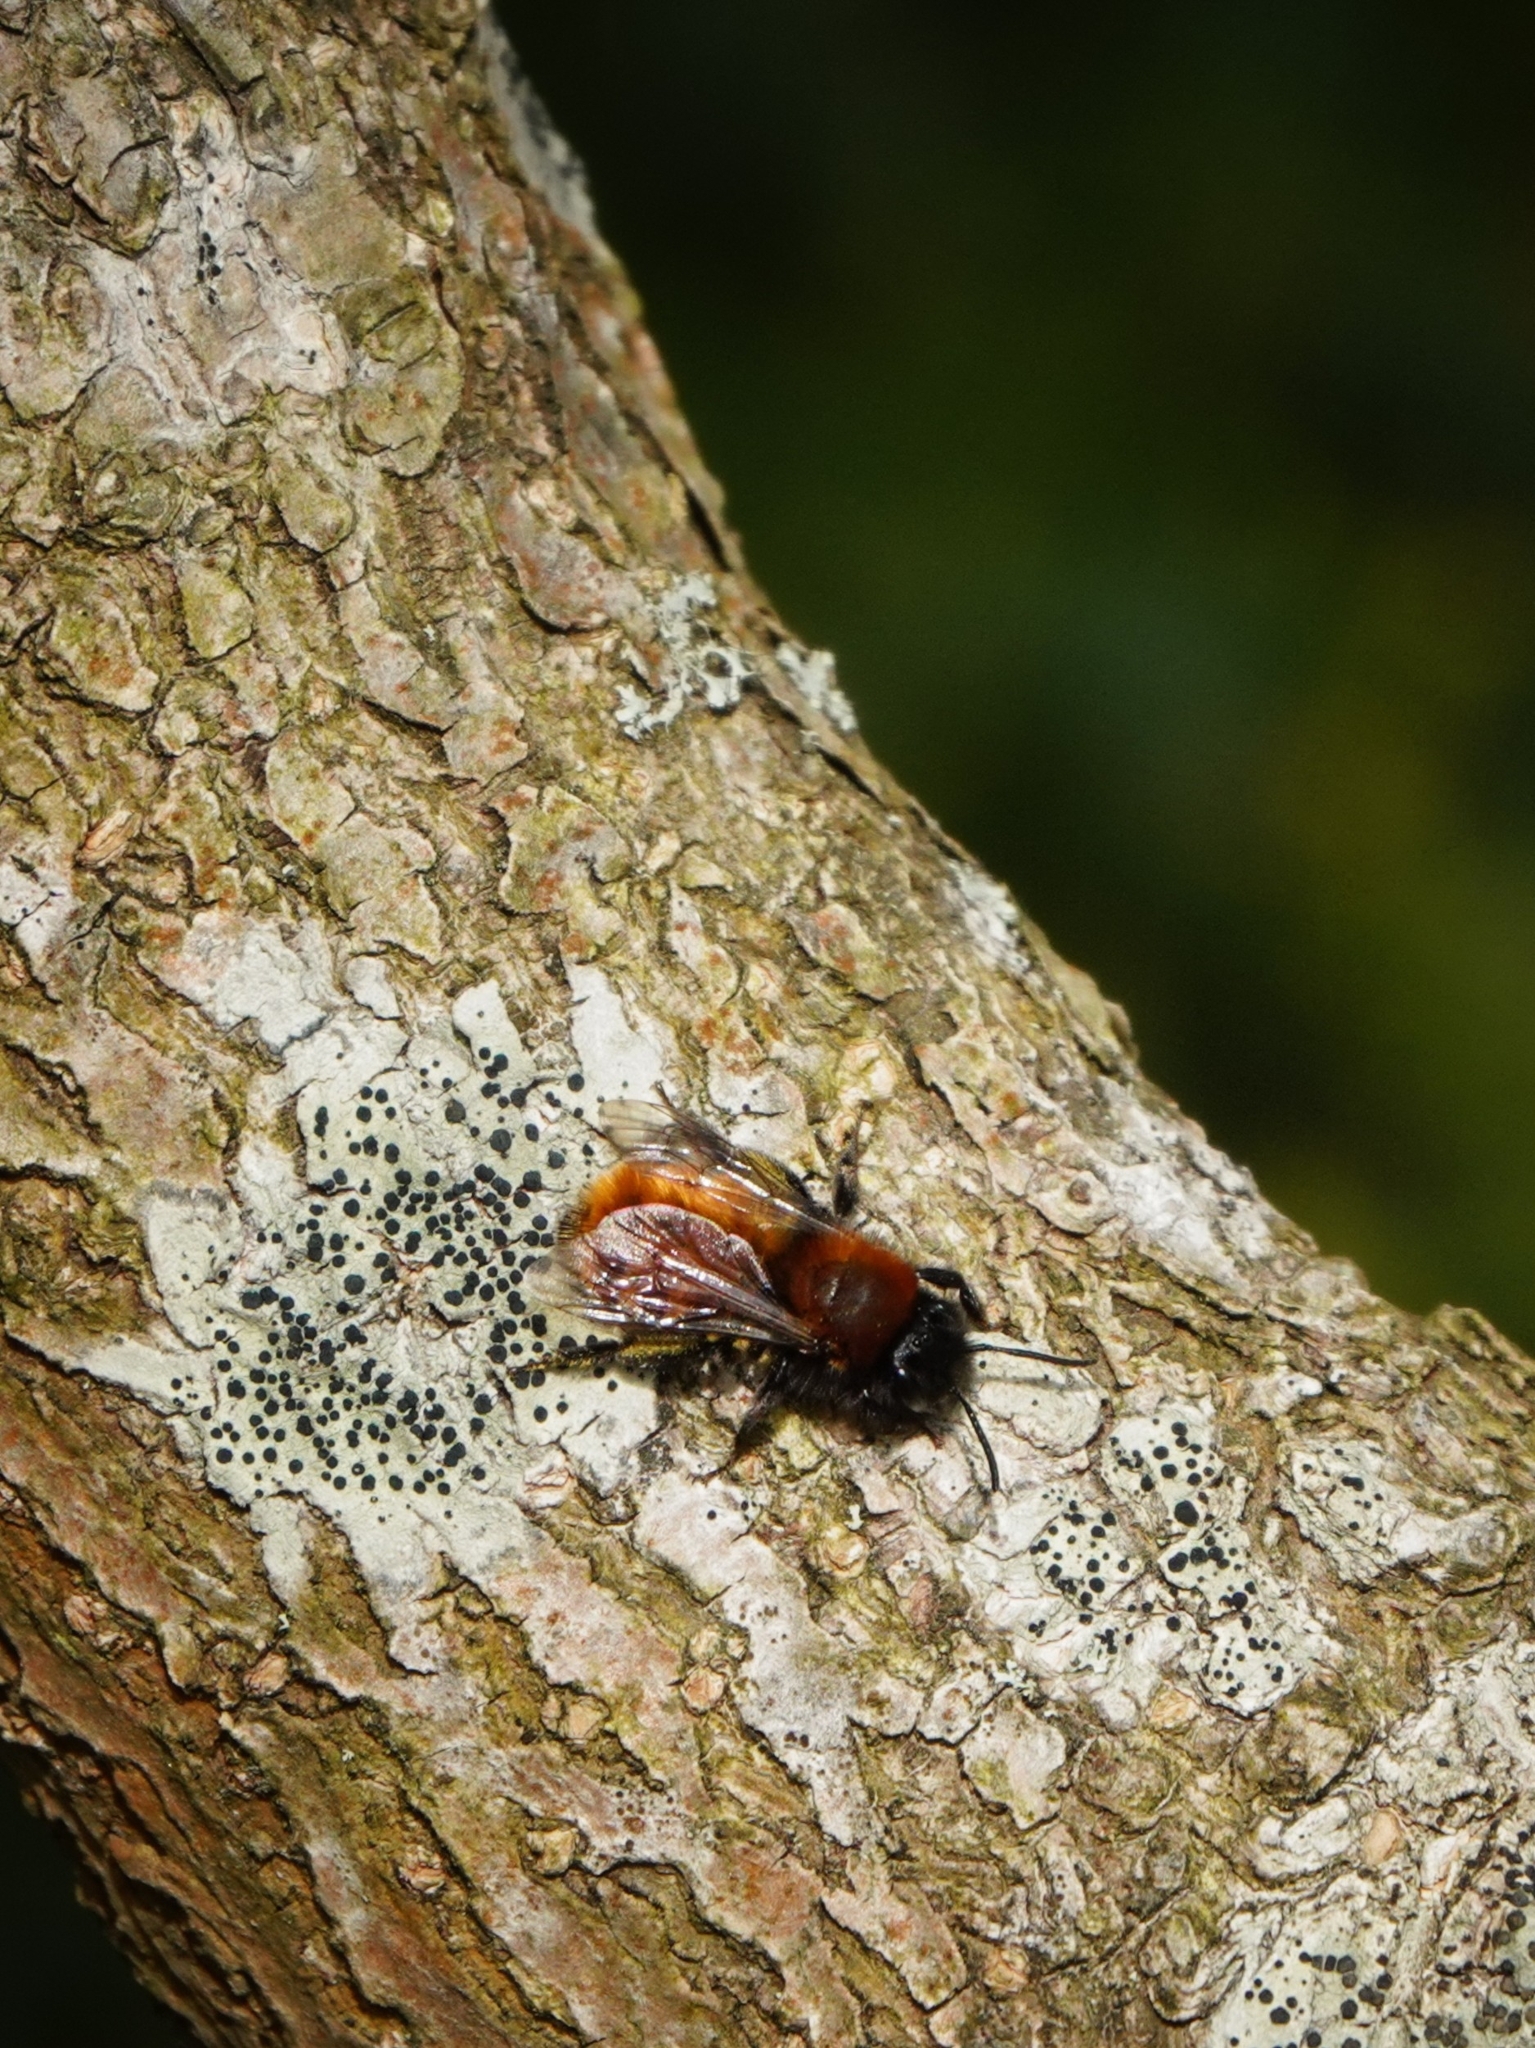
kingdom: Animalia
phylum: Arthropoda
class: Insecta
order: Hymenoptera
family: Andrenidae
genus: Andrena
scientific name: Andrena fulva
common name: Tawny mining bee
